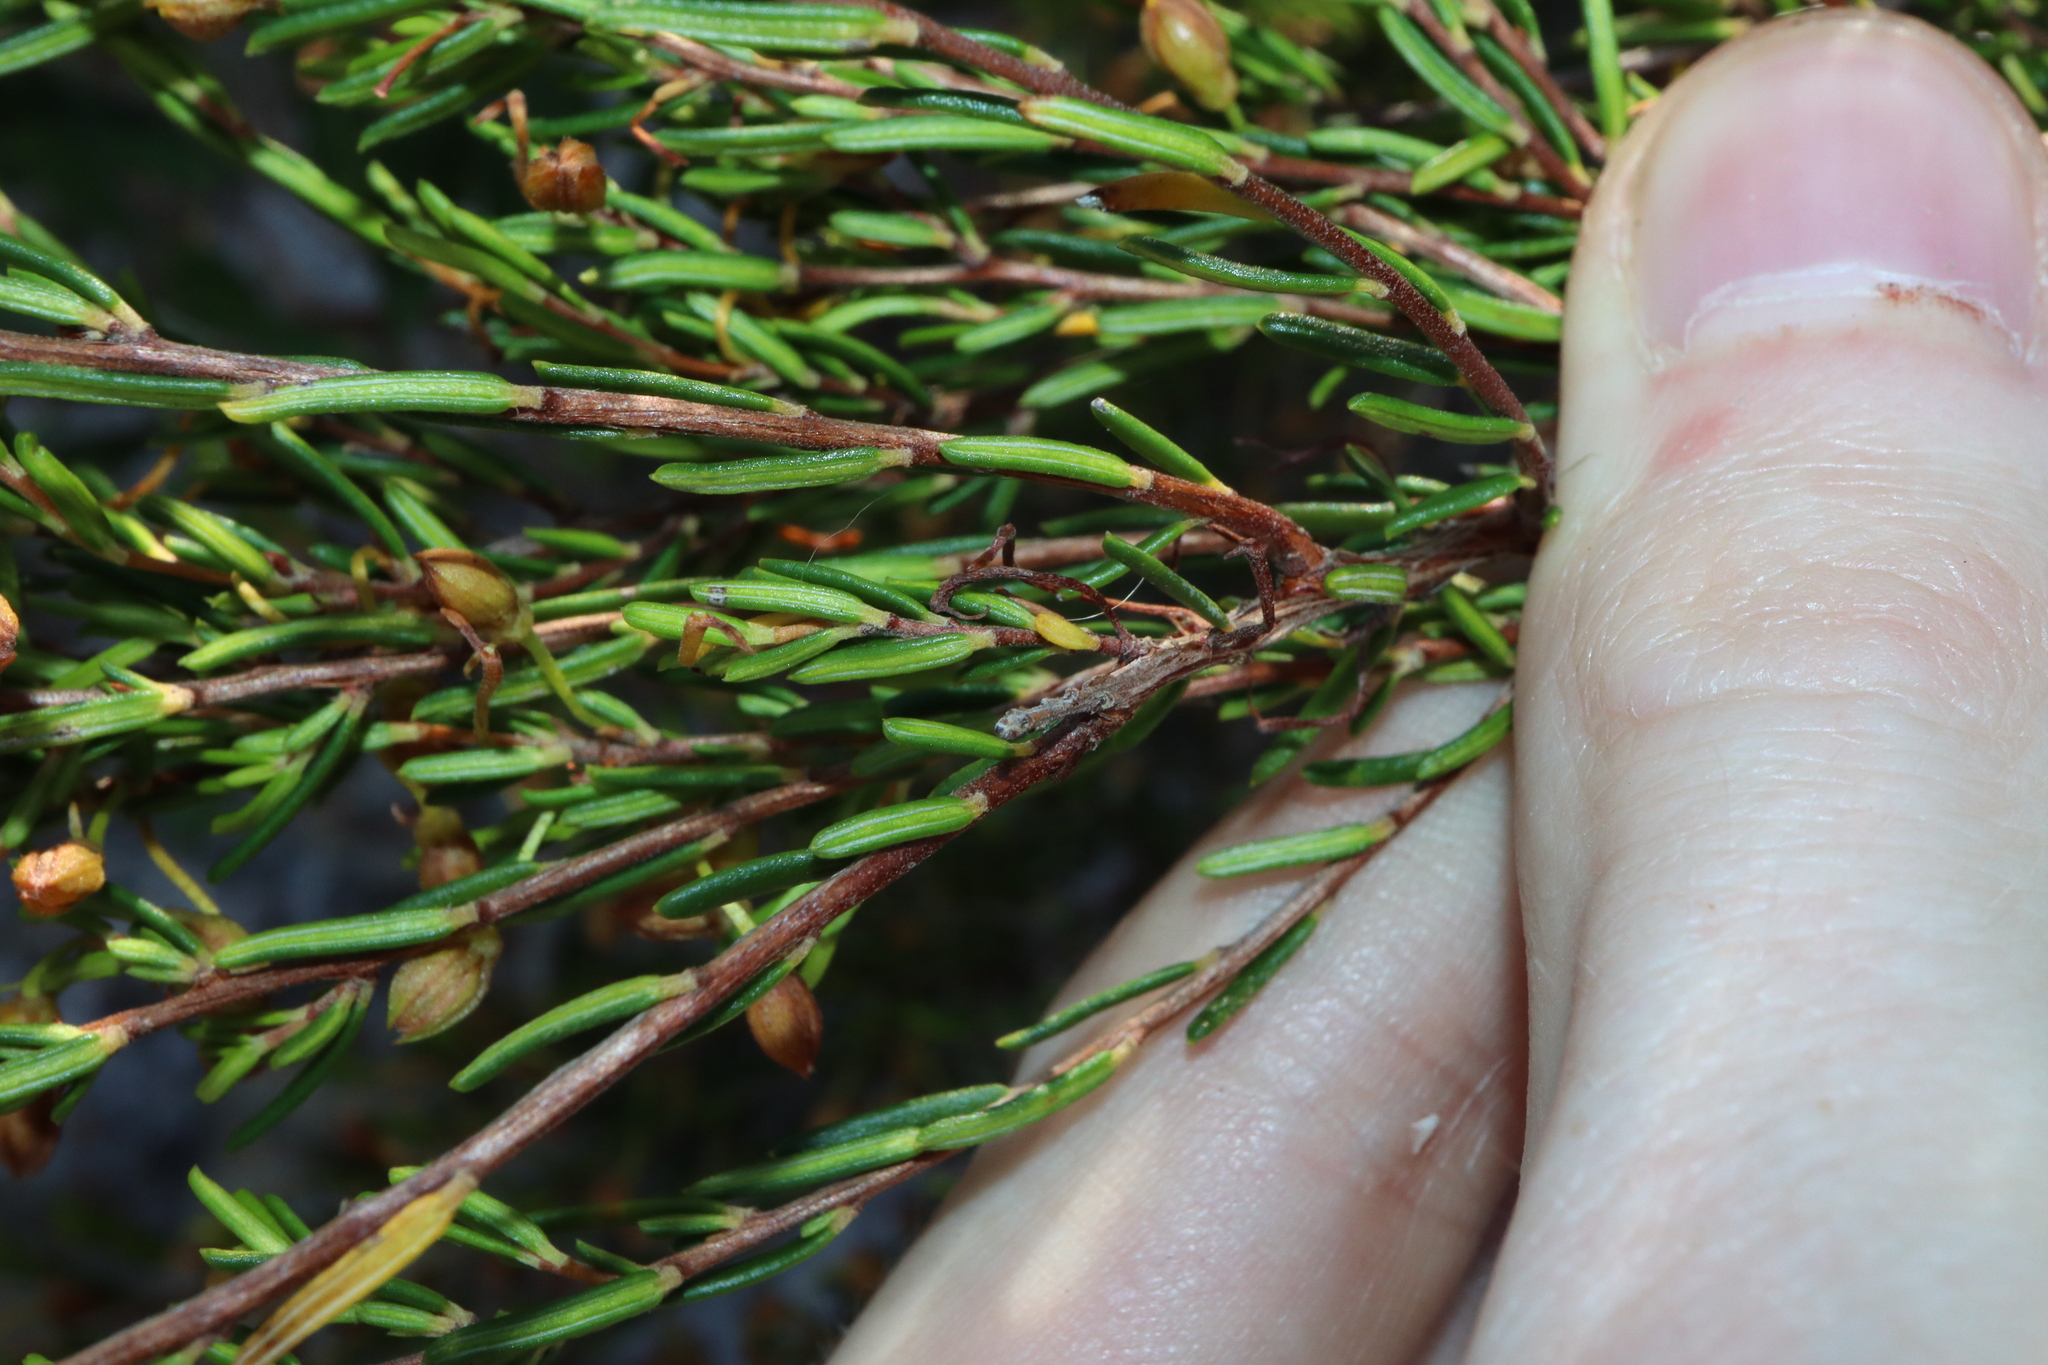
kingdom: Plantae
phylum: Tracheophyta
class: Magnoliopsida
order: Dilleniales
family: Dilleniaceae
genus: Hibbertia
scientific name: Hibbertia papillata
